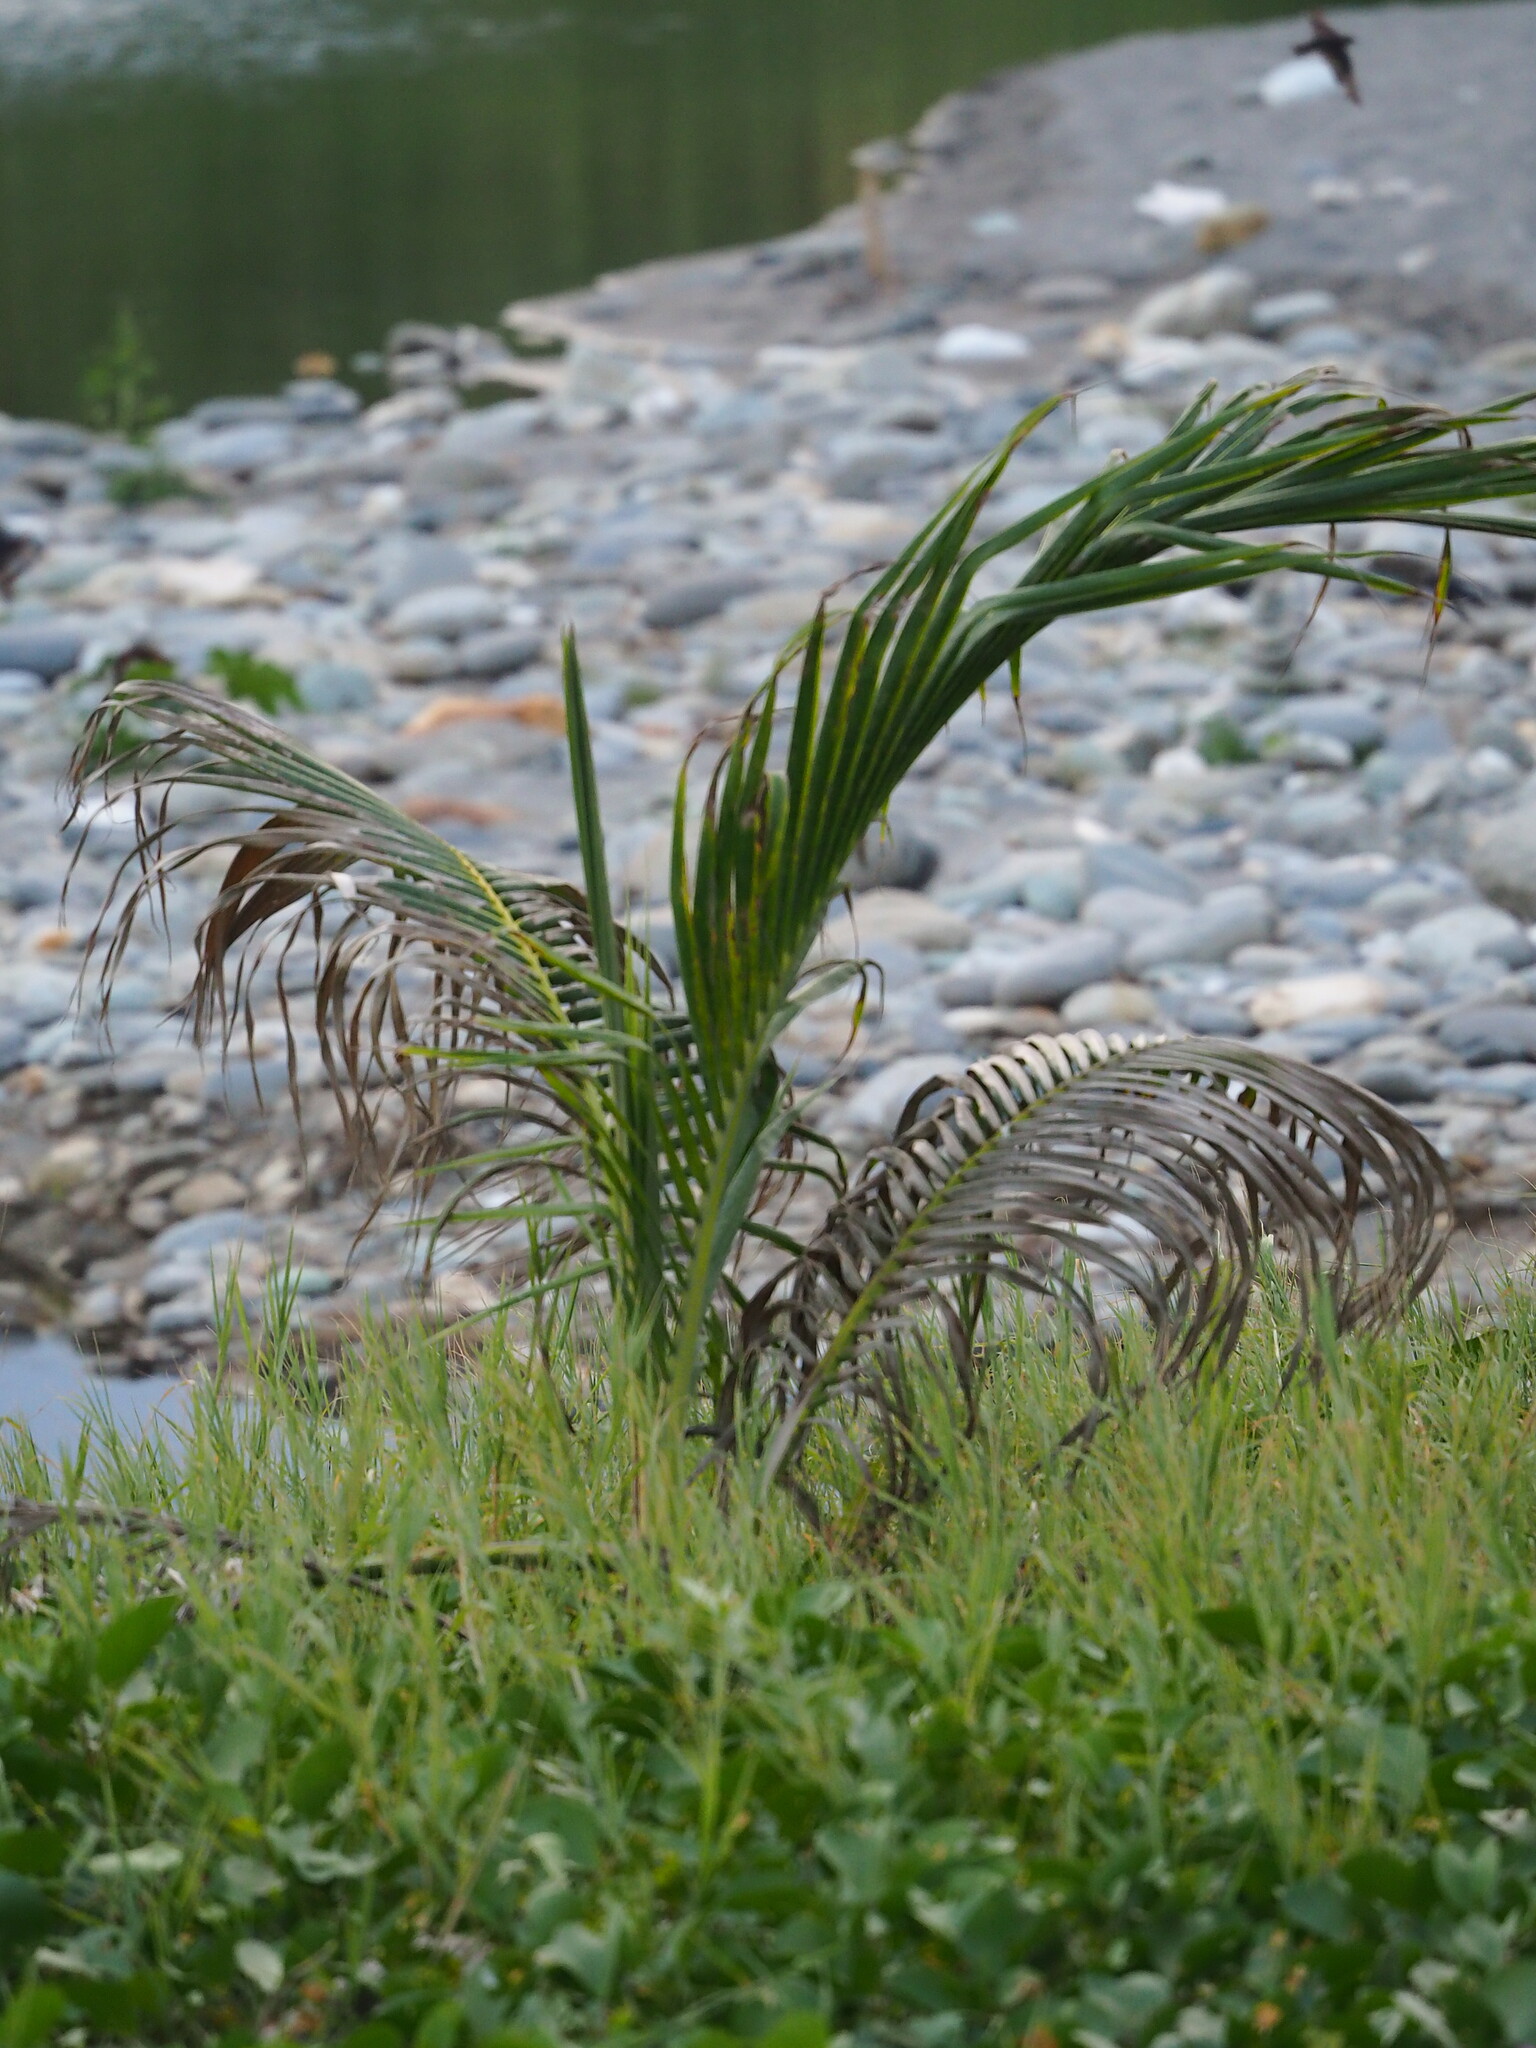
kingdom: Plantae
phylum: Tracheophyta
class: Liliopsida
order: Arecales
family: Arecaceae
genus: Cocos
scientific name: Cocos nucifera
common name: Coconut palm
